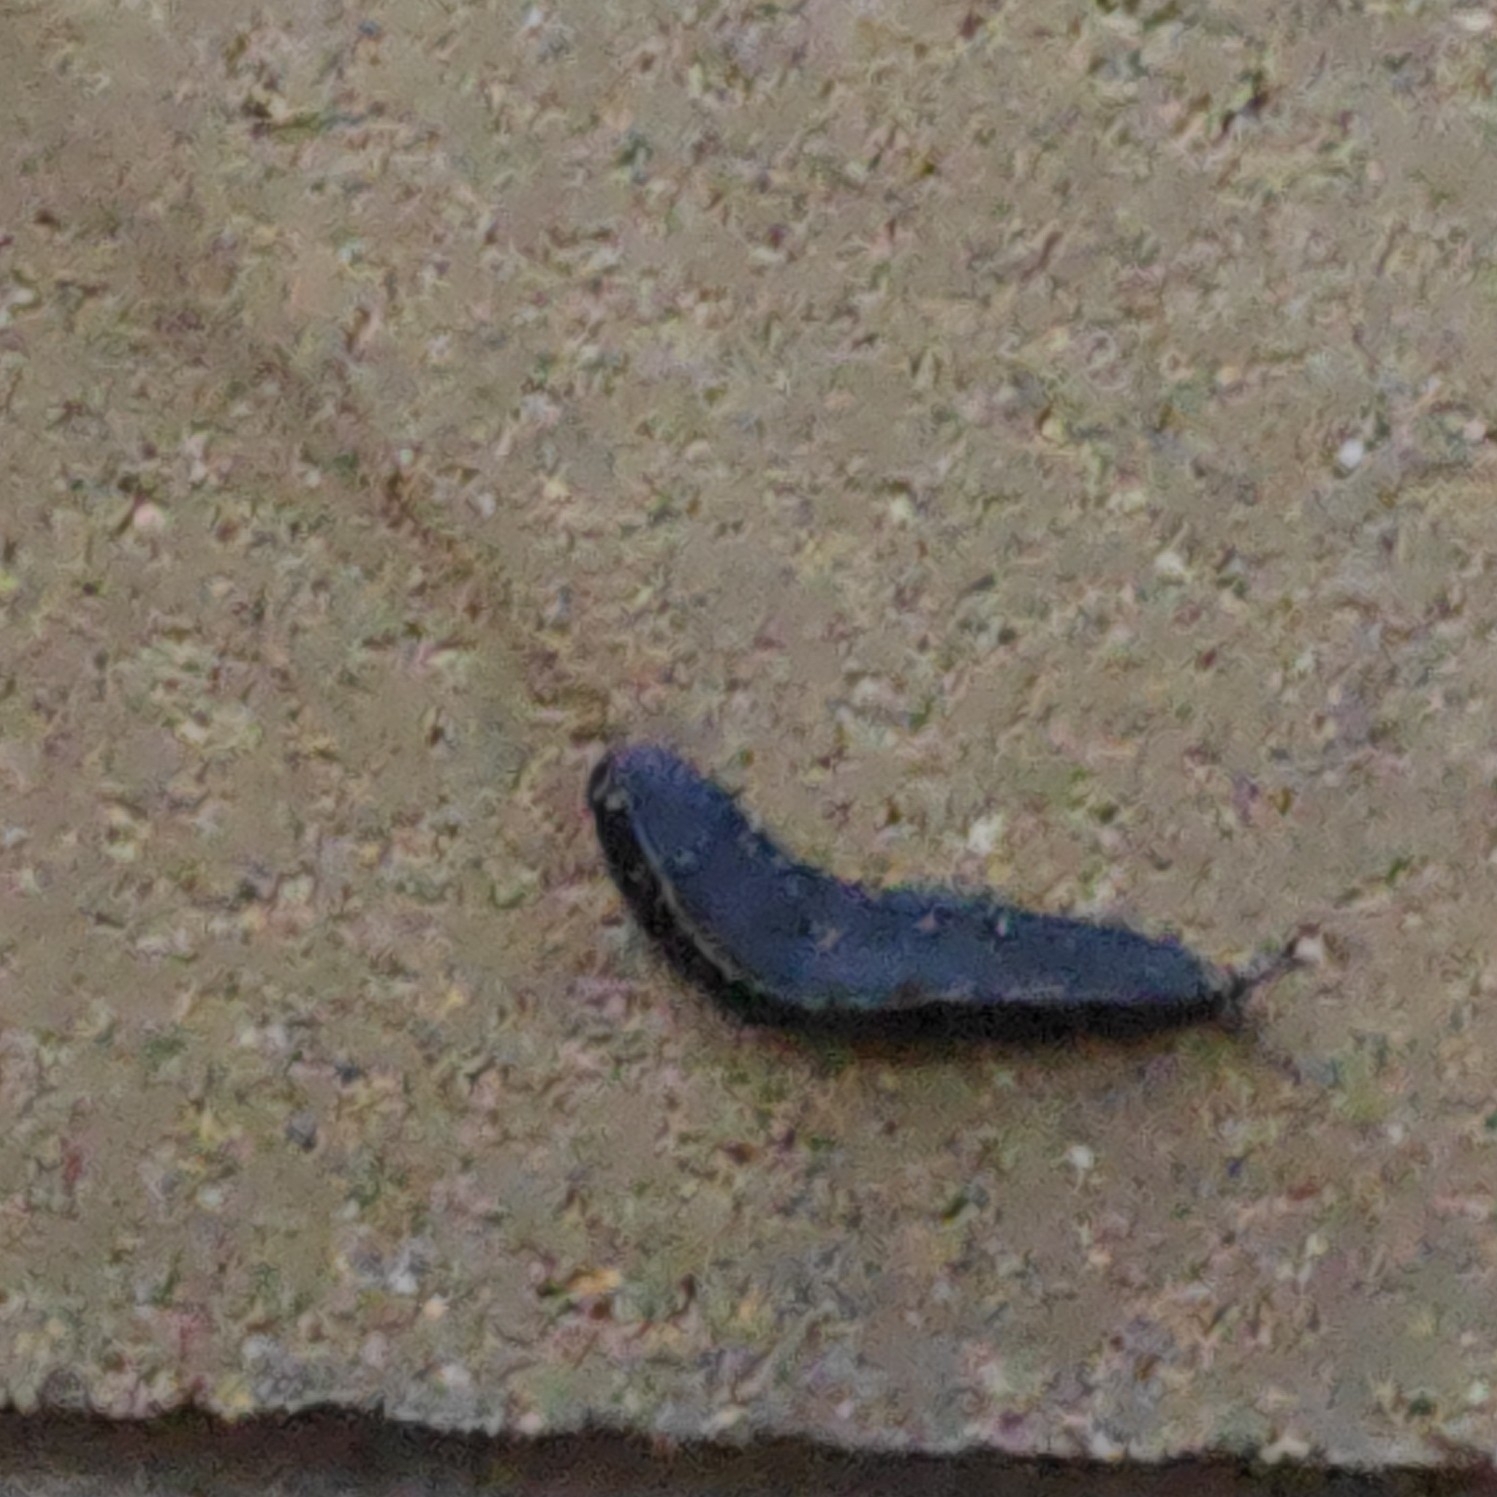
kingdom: Animalia
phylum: Mollusca
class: Gastropoda
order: Systellommatophora
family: Veronicellidae
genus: Laevicaulis
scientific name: Laevicaulis alte
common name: Tropical leatherleaf
